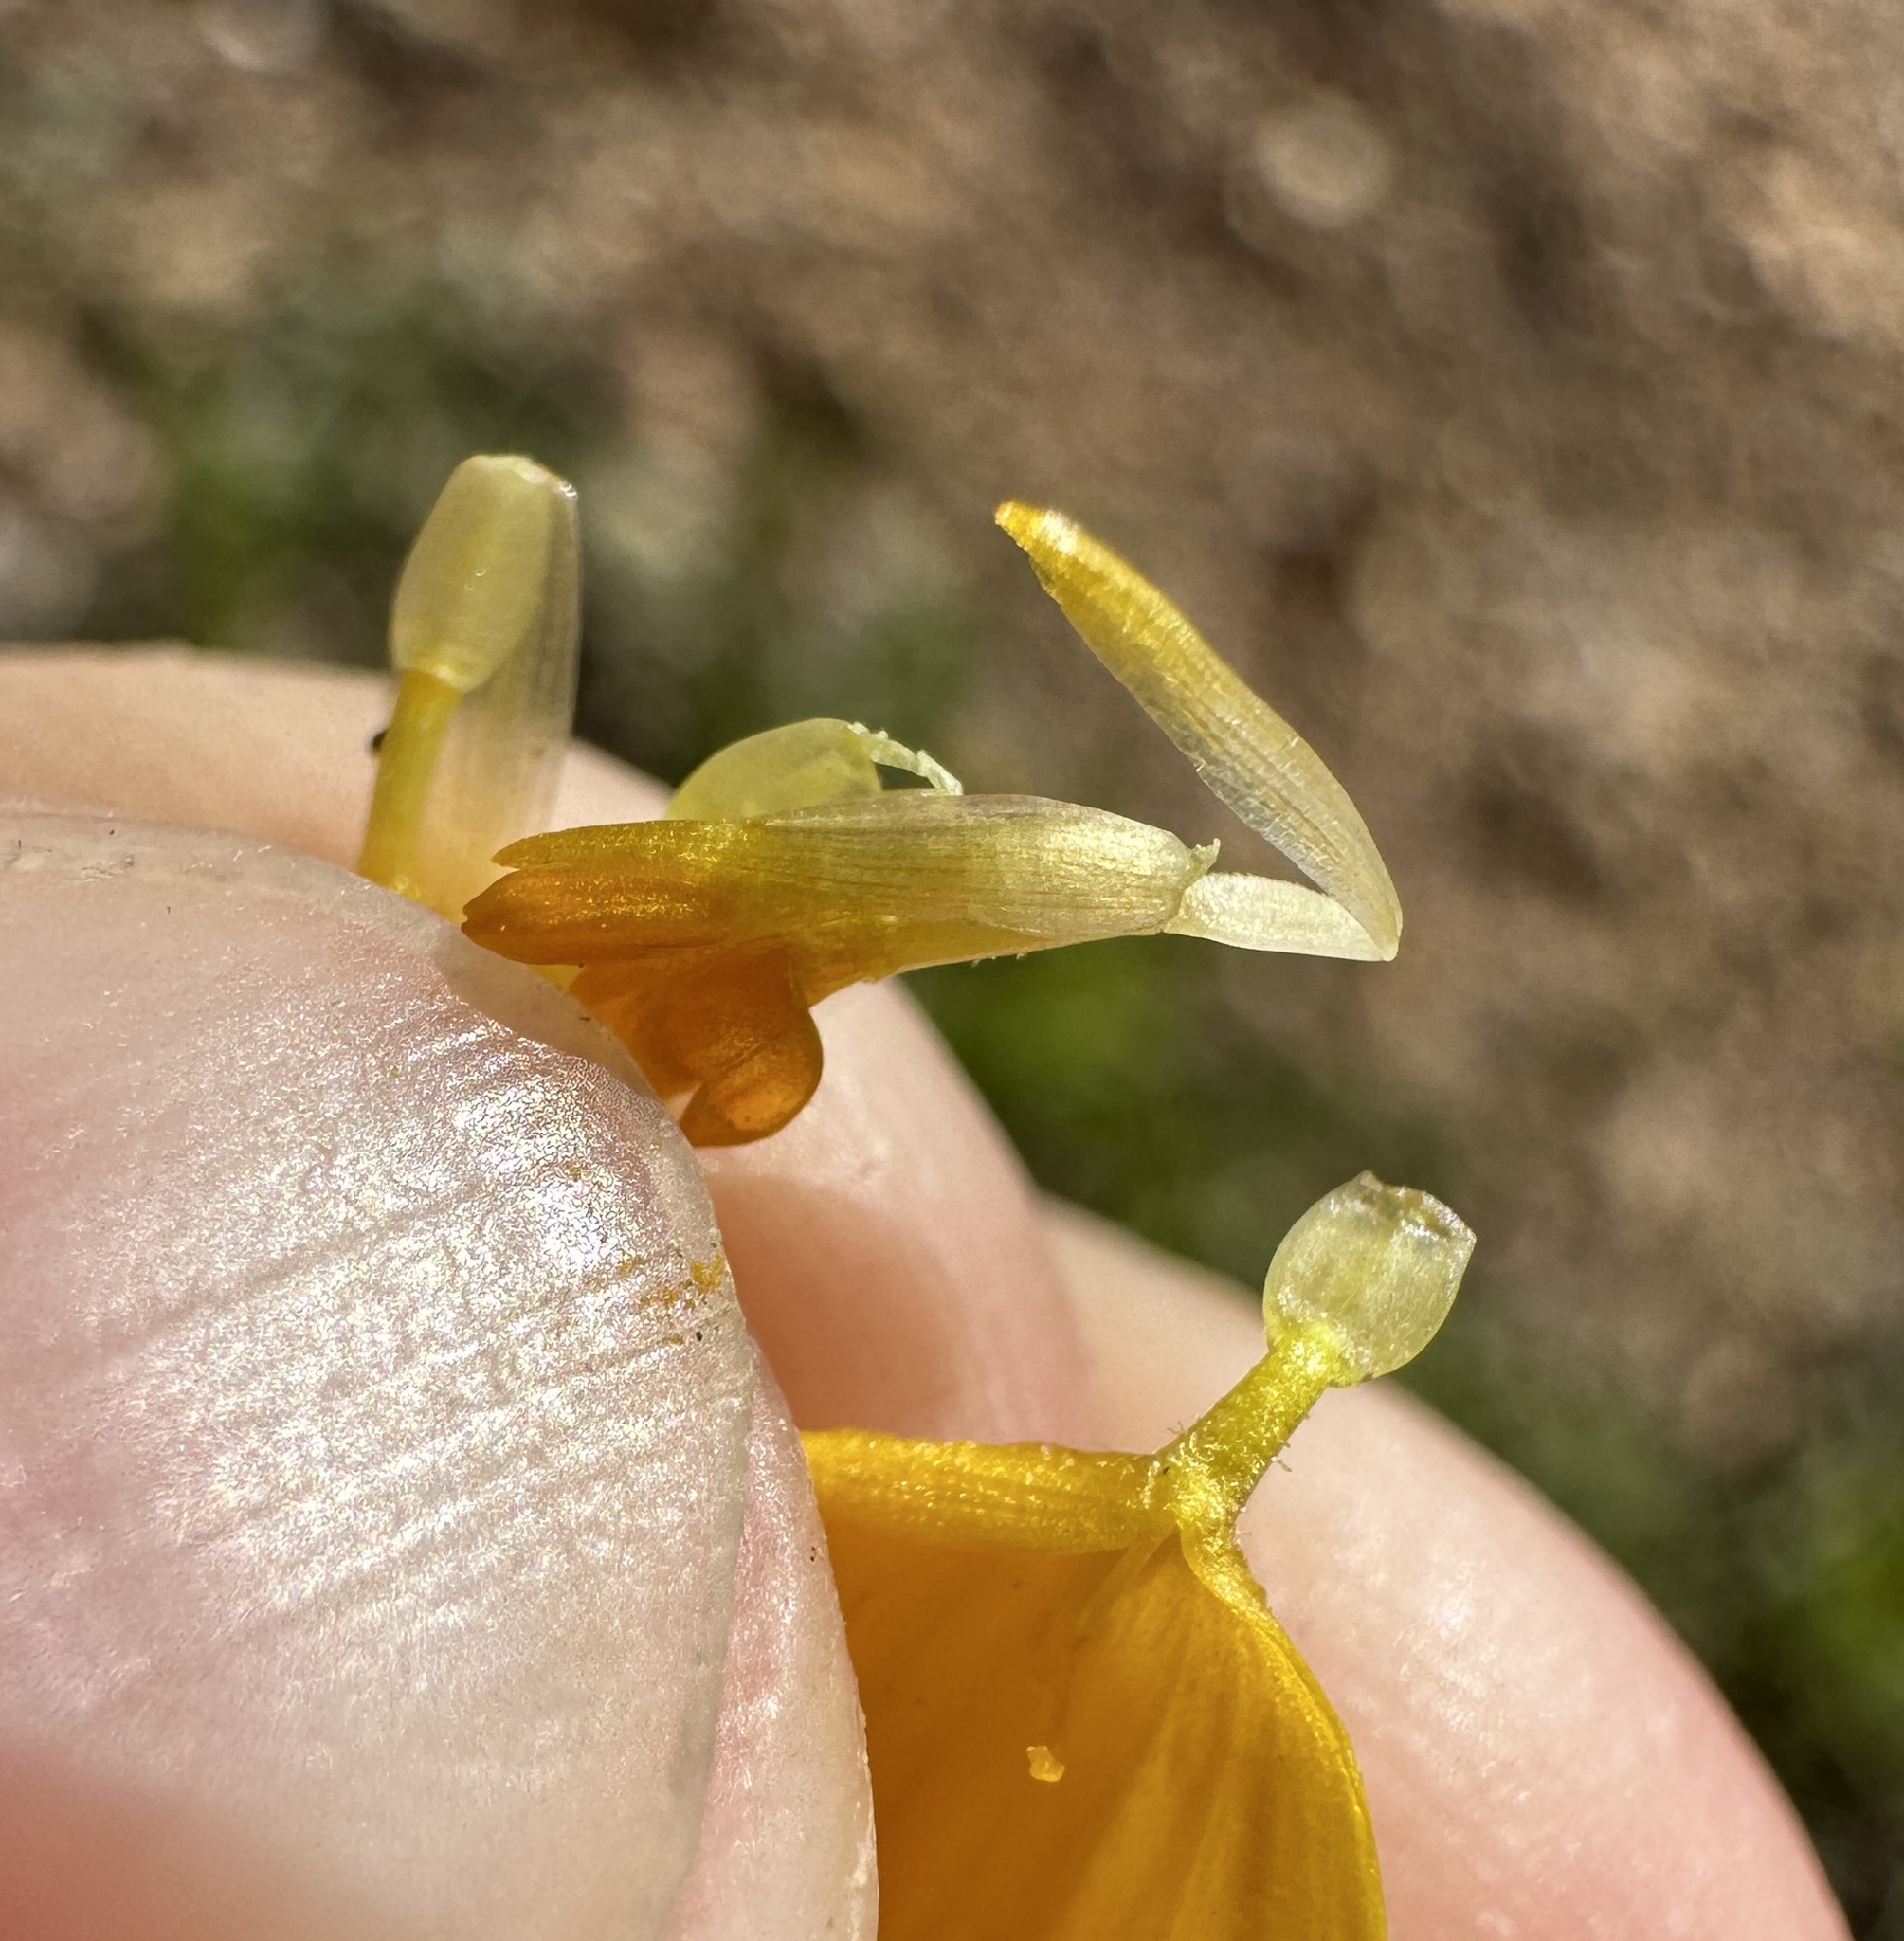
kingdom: Plantae
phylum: Tracheophyta
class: Magnoliopsida
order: Asterales
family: Asteraceae
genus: Coreopsis
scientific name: Coreopsis stillmanii
